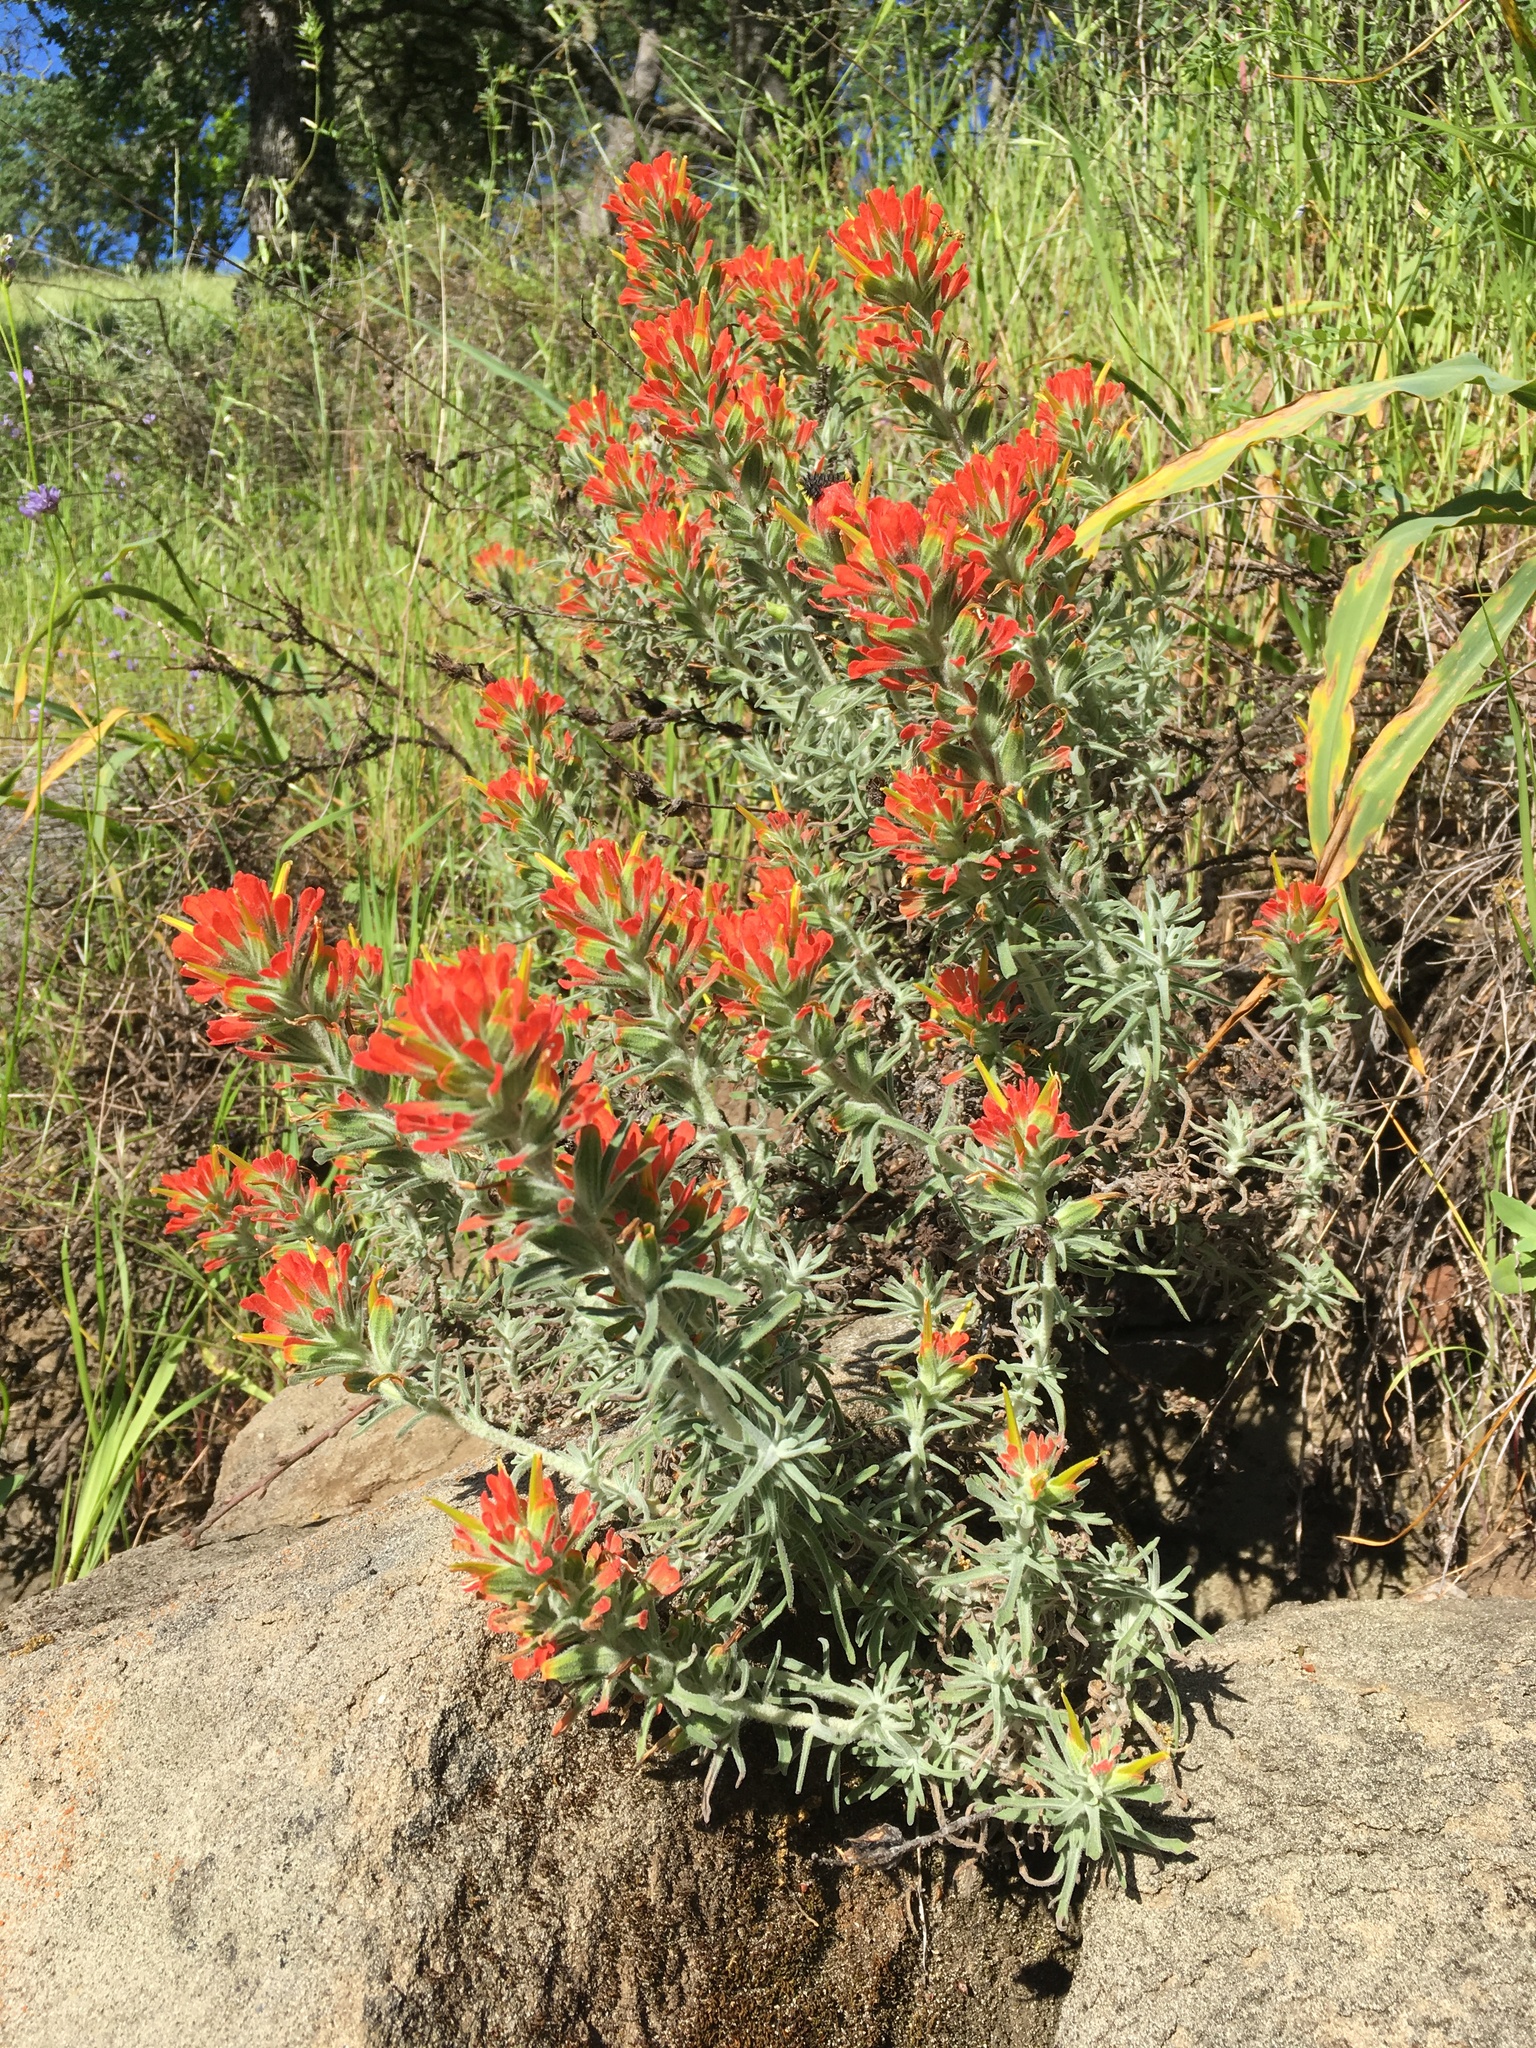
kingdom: Plantae
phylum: Tracheophyta
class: Magnoliopsida
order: Lamiales
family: Orobanchaceae
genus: Castilleja
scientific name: Castilleja foliolosa
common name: Woolly indian paintbrush
